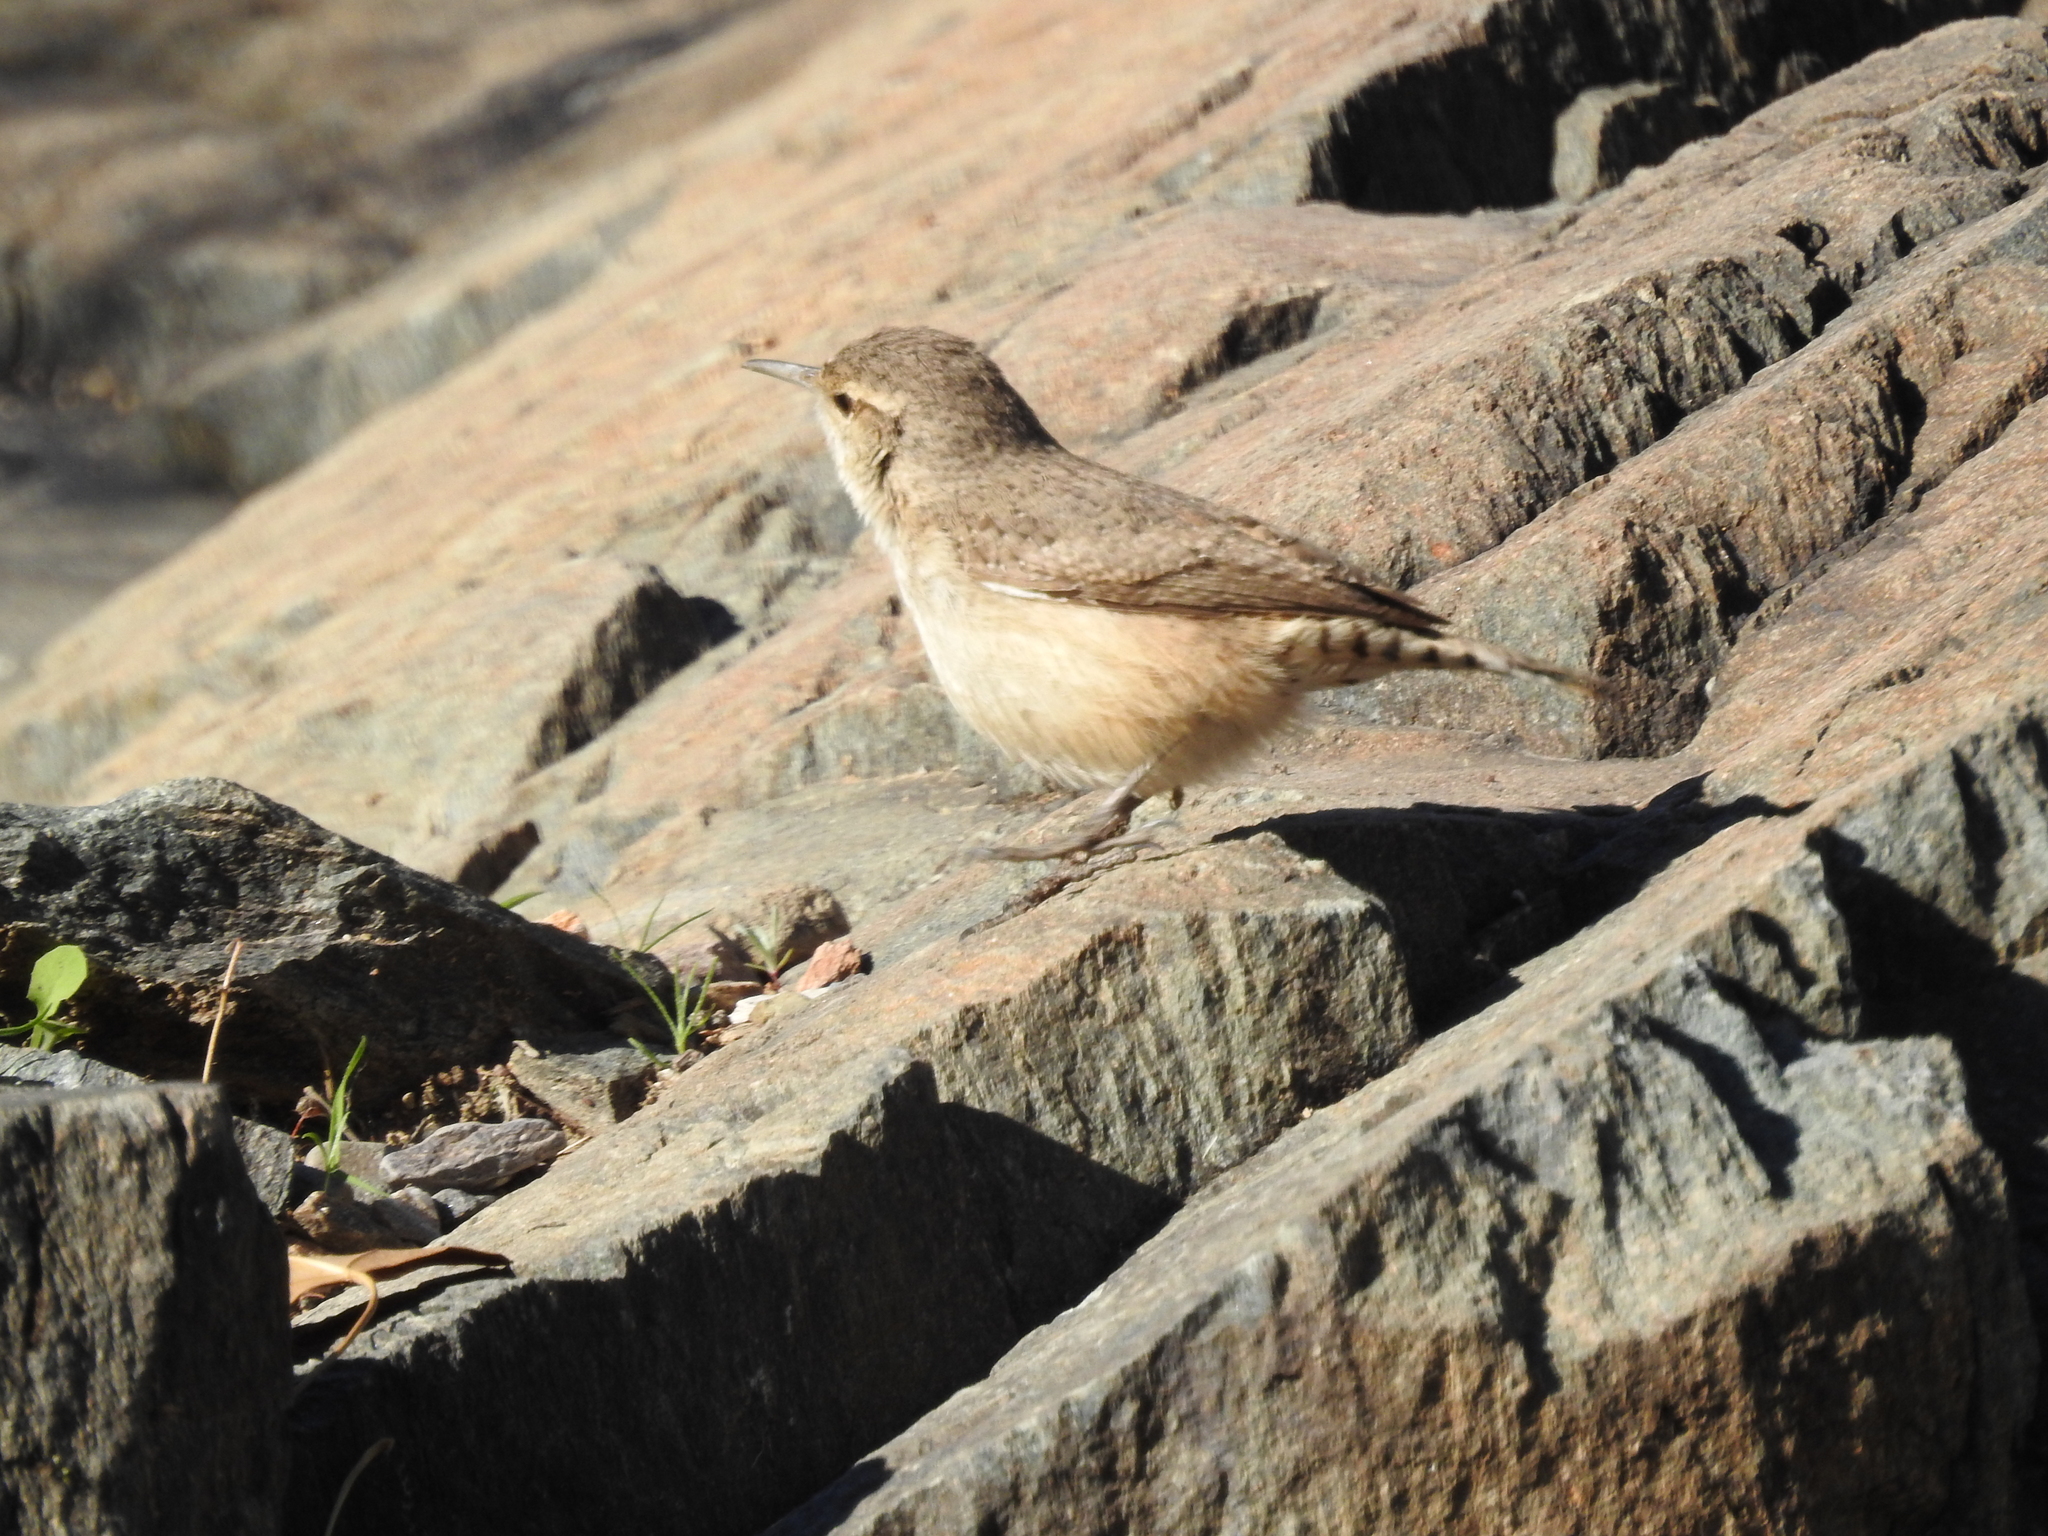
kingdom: Animalia
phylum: Chordata
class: Aves
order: Passeriformes
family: Troglodytidae
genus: Salpinctes
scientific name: Salpinctes obsoletus
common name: Rock wren
